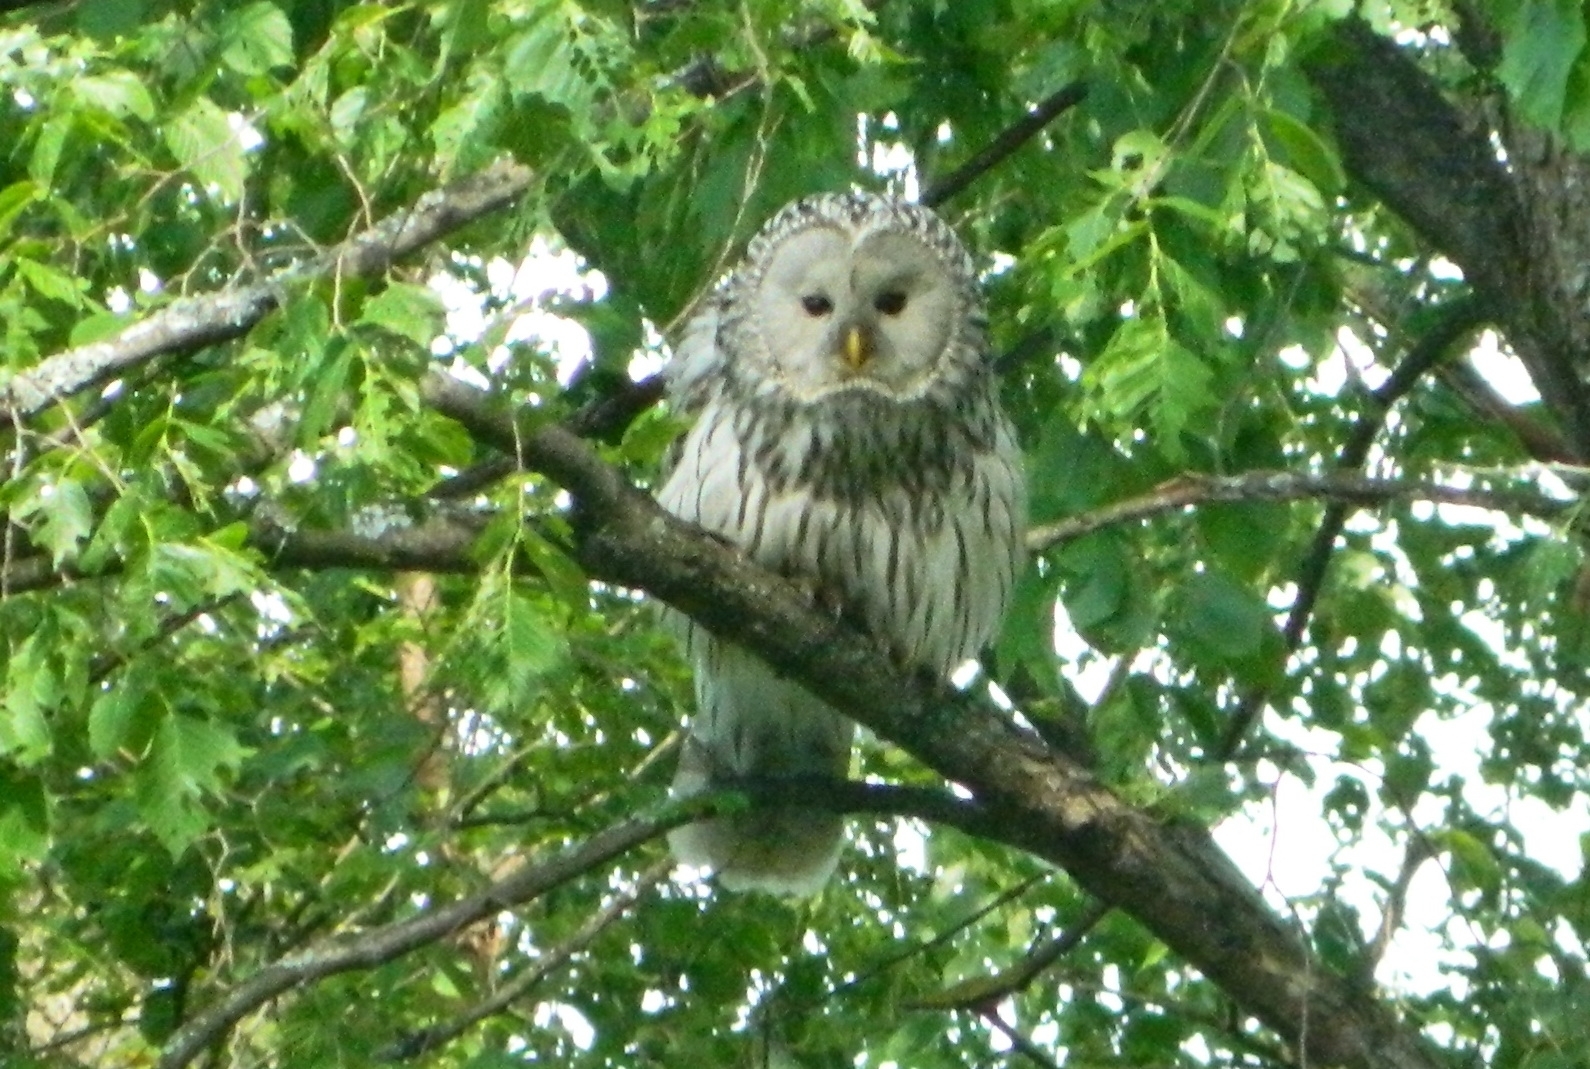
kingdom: Animalia
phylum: Chordata
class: Aves
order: Strigiformes
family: Strigidae
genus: Strix
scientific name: Strix uralensis
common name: Ural owl
